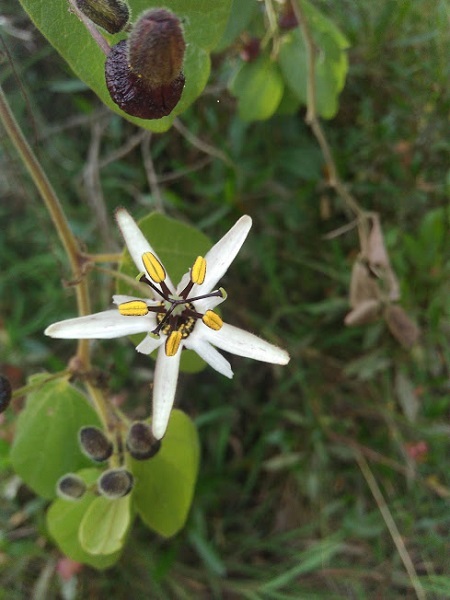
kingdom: Plantae
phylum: Tracheophyta
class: Magnoliopsida
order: Malpighiales
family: Passifloraceae
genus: Passiflora
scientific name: Passiflora bogotensis
